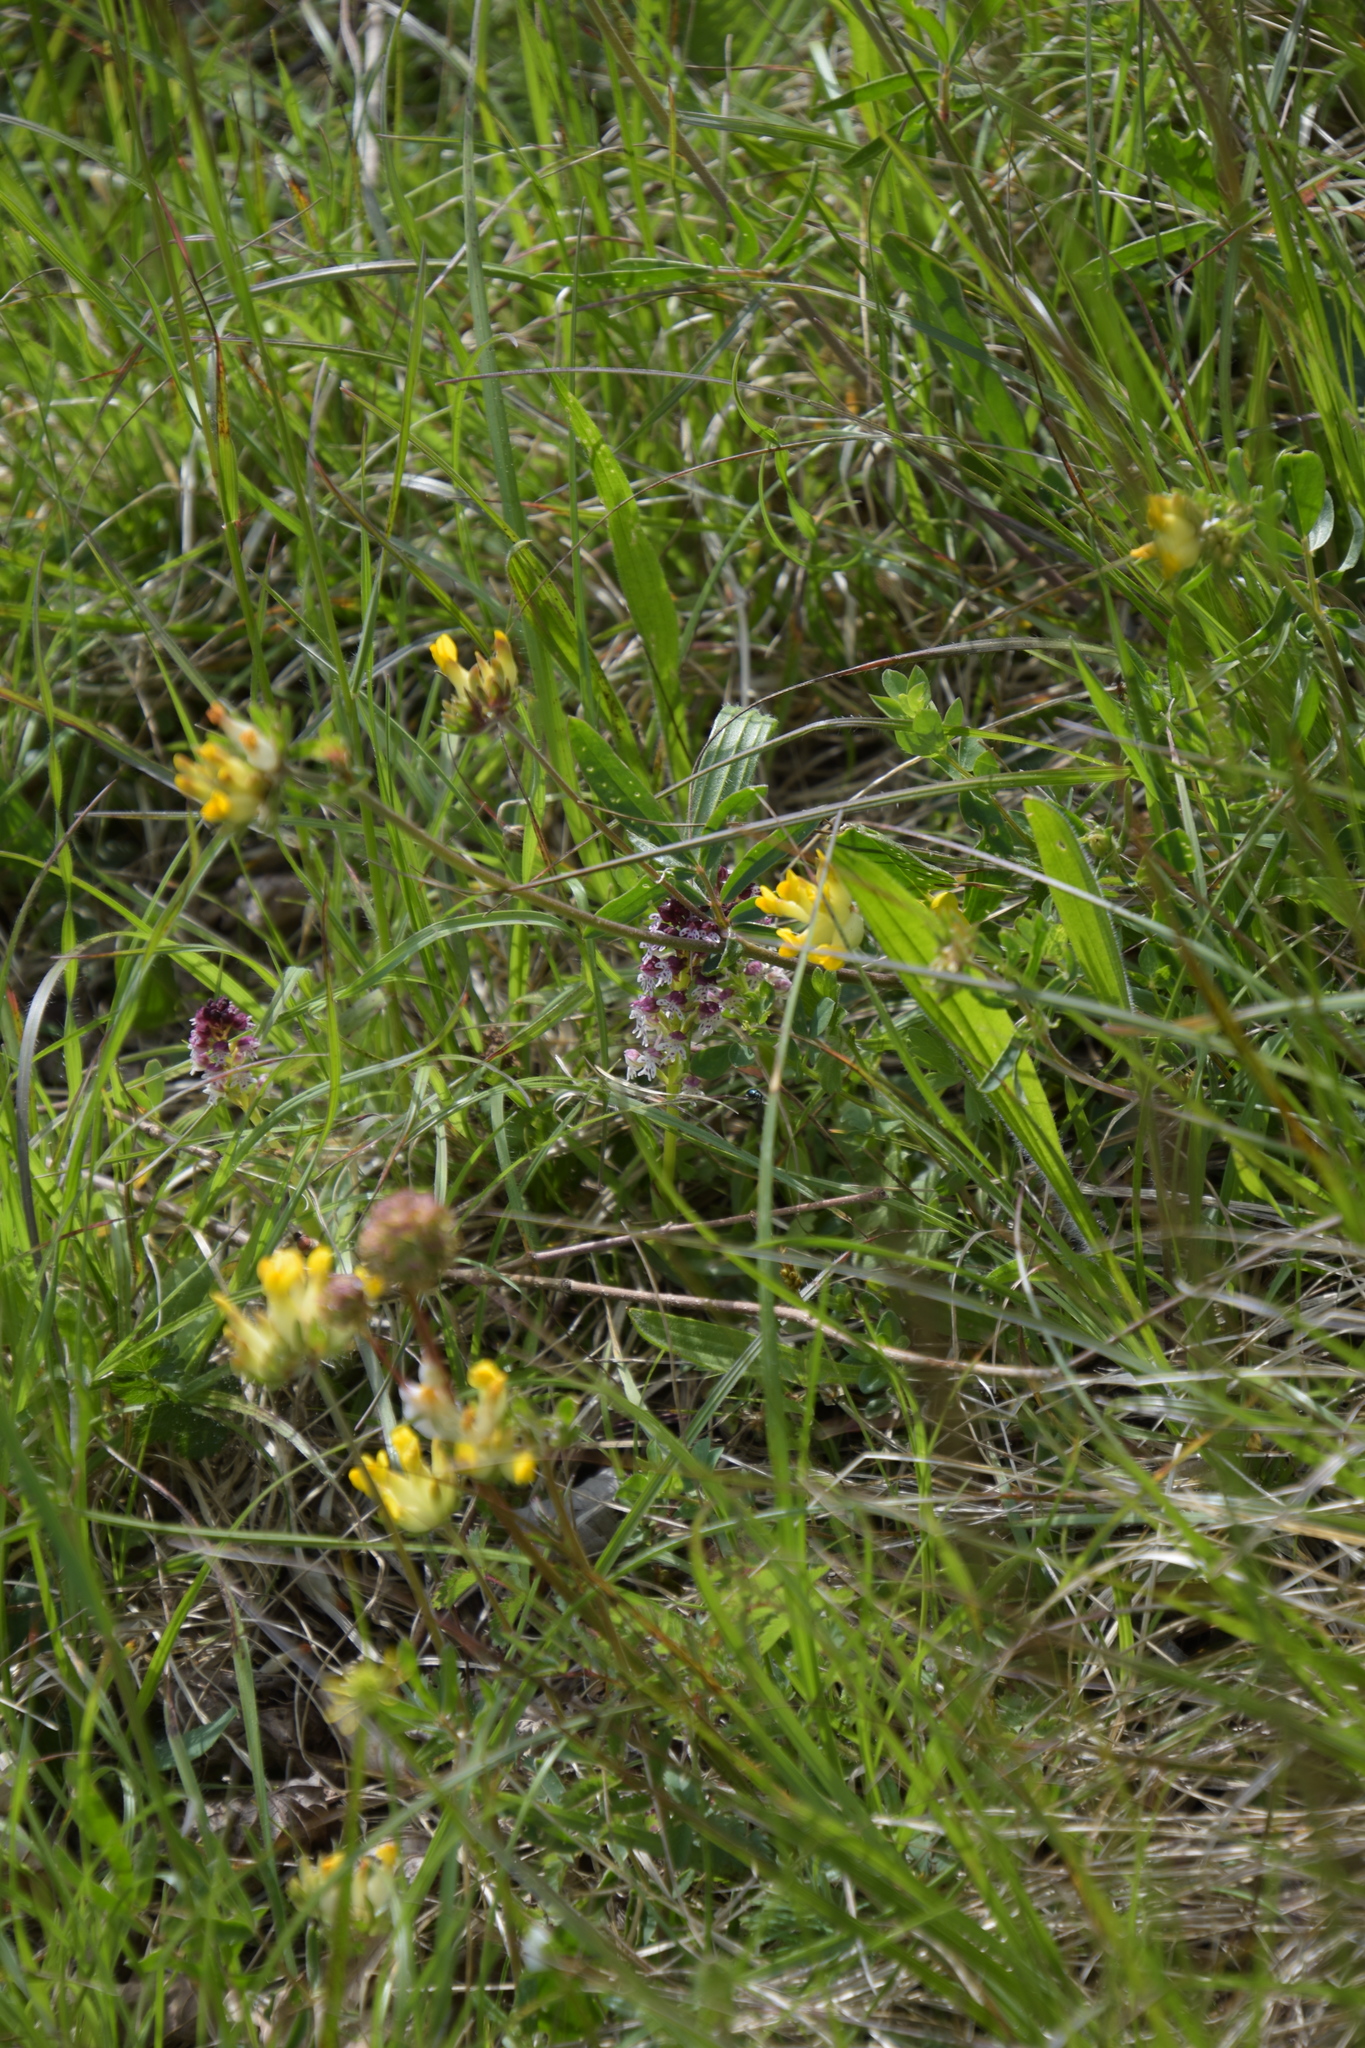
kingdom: Plantae
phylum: Tracheophyta
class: Liliopsida
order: Asparagales
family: Orchidaceae
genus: Neotinea
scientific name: Neotinea ustulata
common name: Burnt orchid
